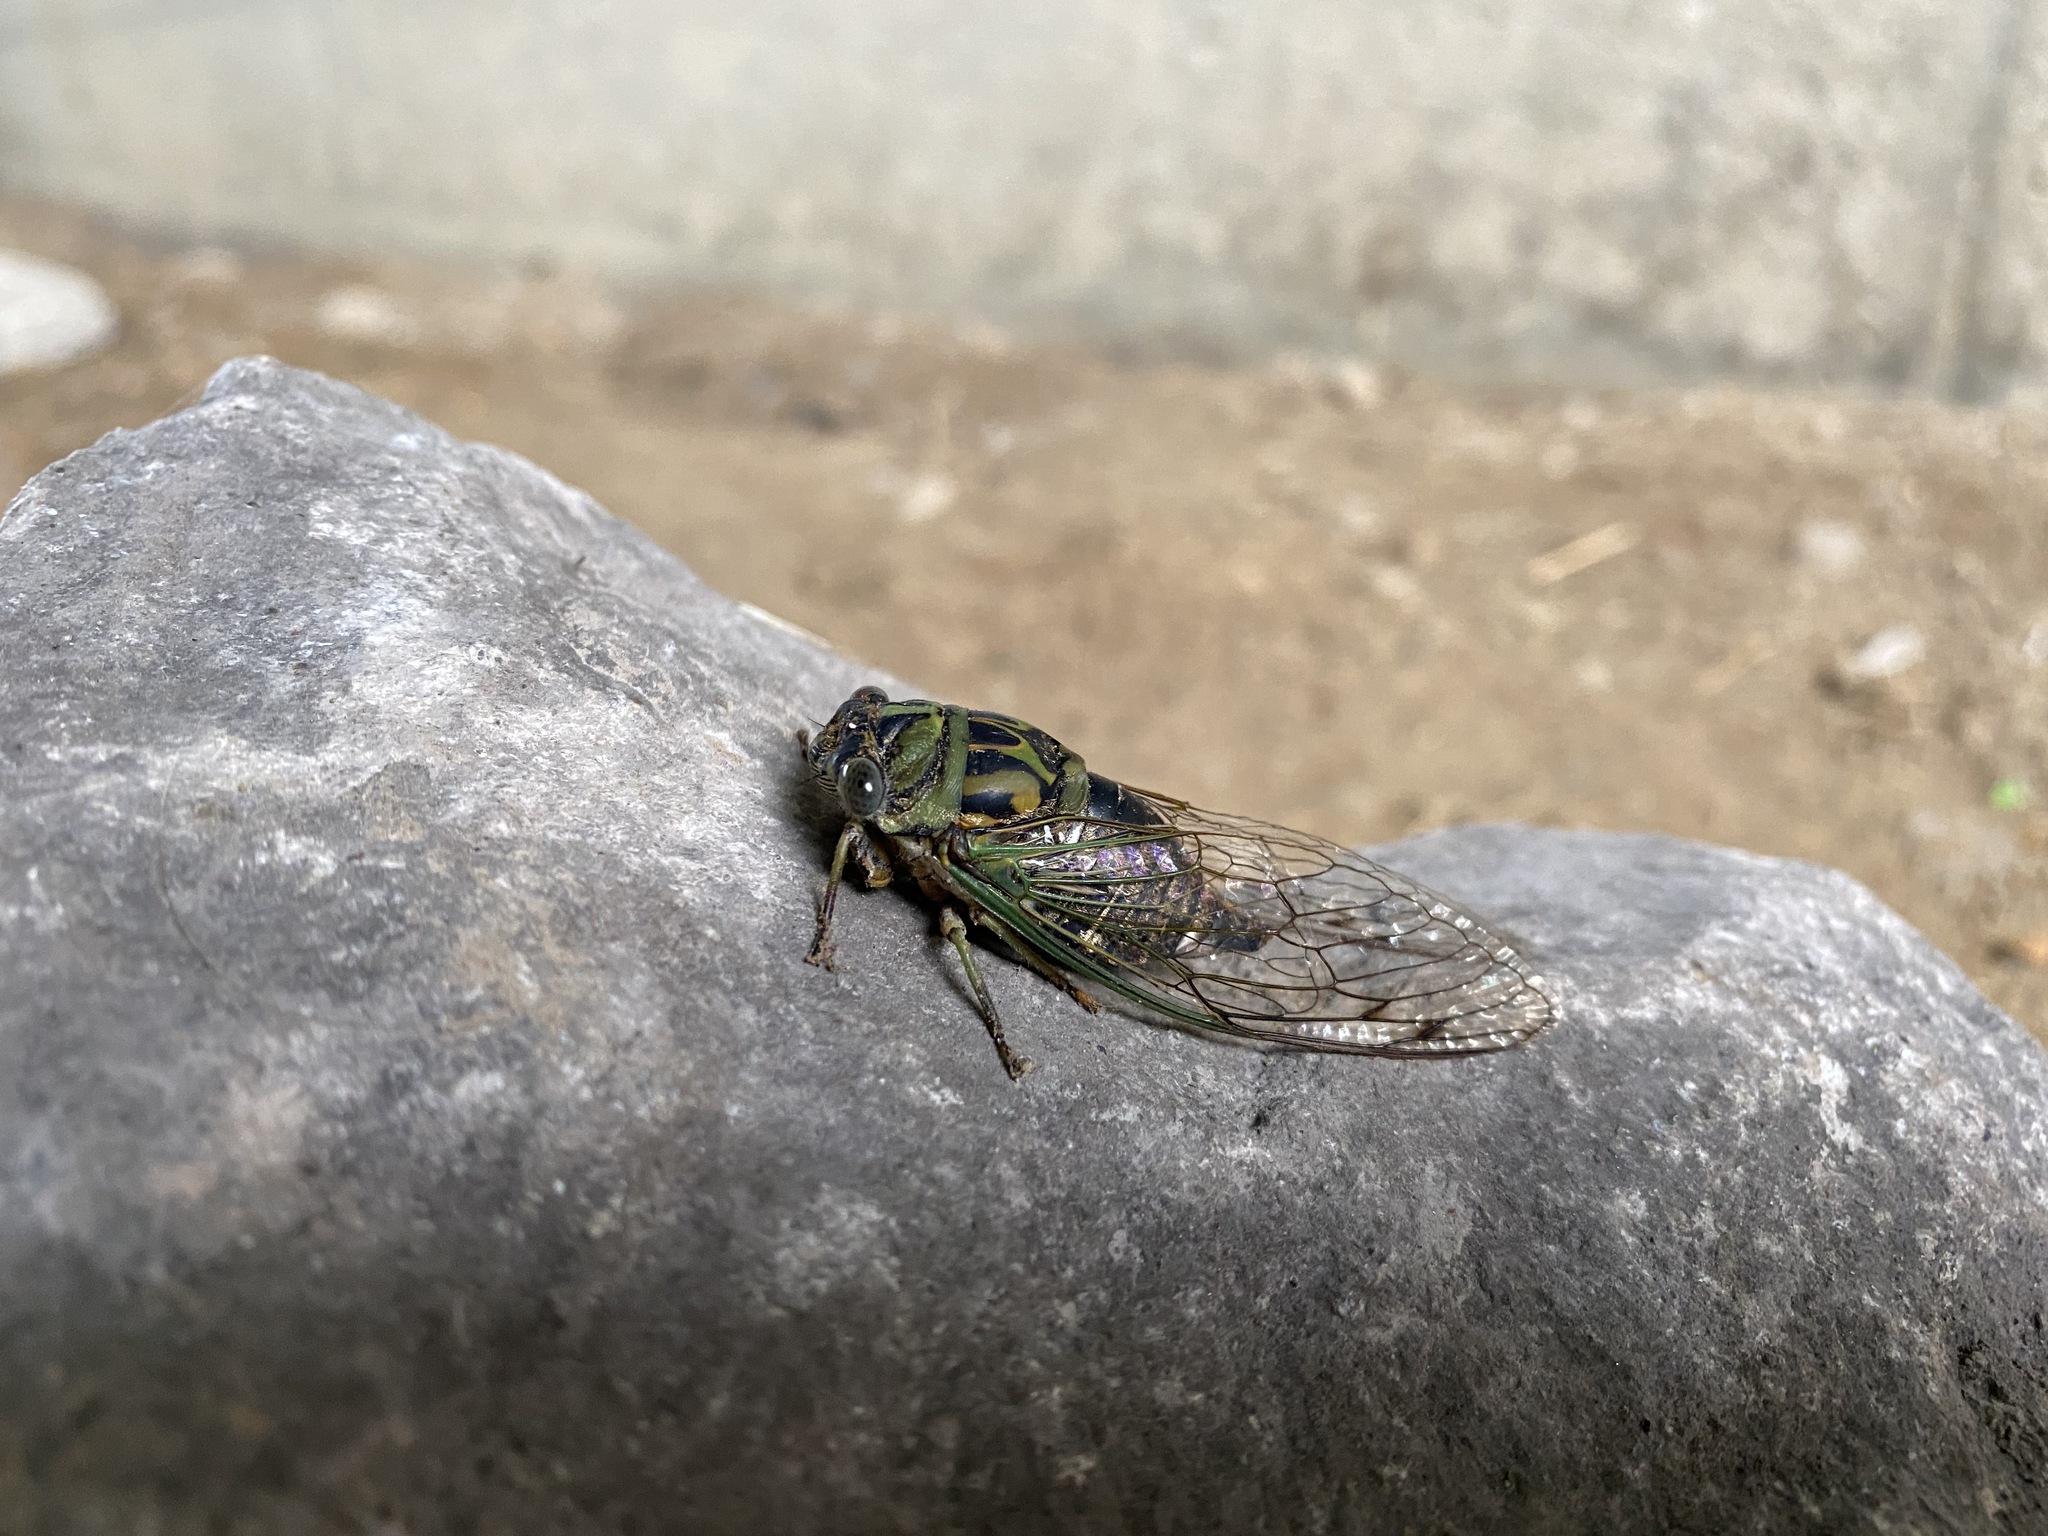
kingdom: Animalia
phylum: Arthropoda
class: Insecta
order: Hemiptera
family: Cicadidae
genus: Neotibicen
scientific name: Neotibicen canicularis
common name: God-day cicada
